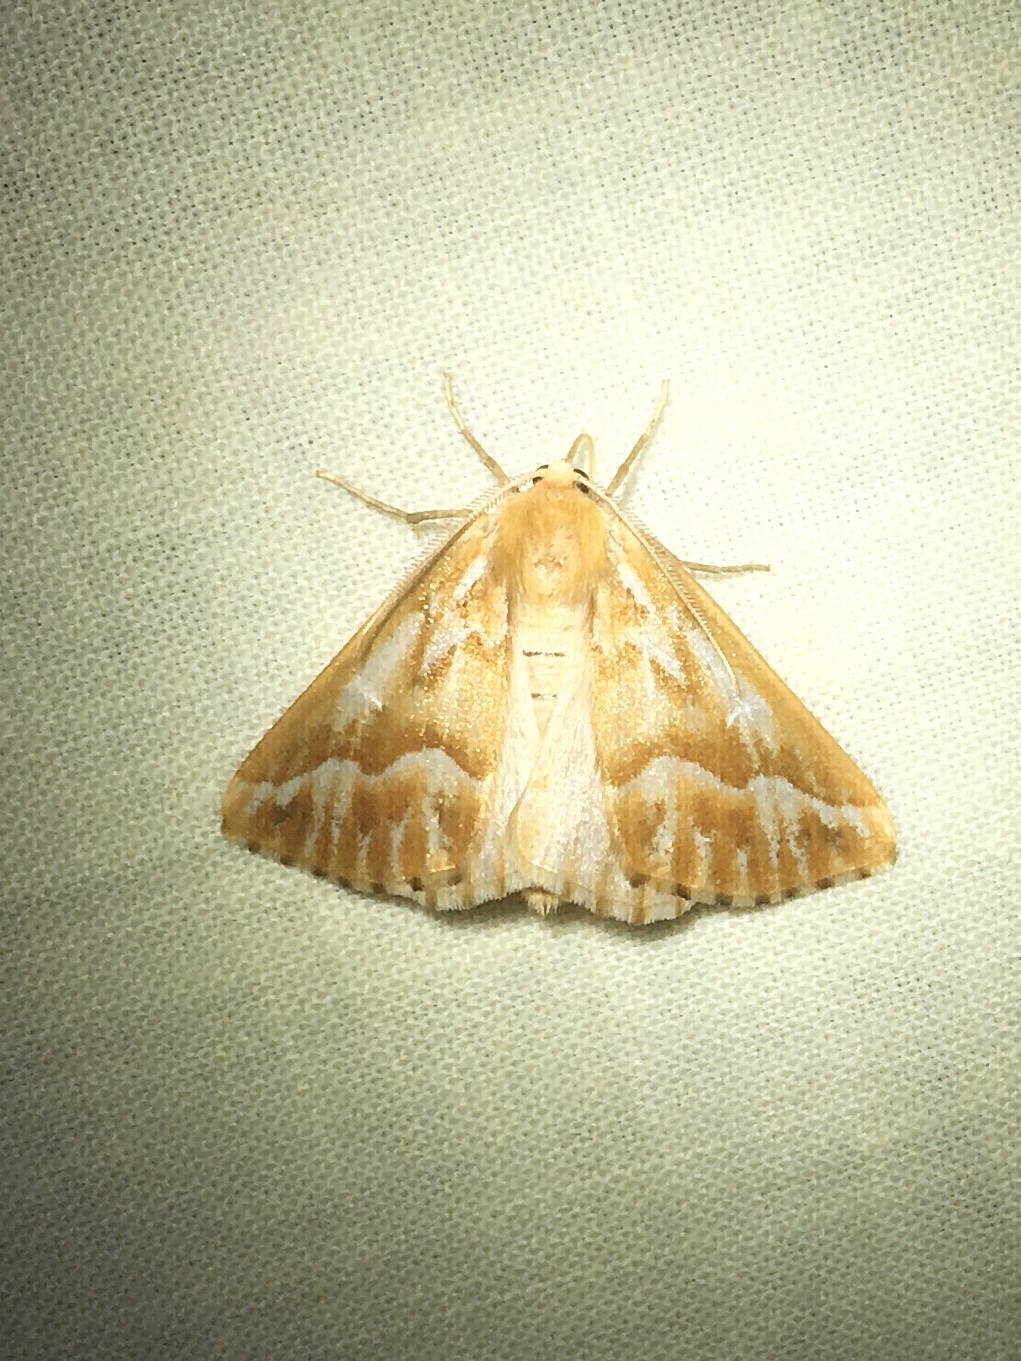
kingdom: Animalia
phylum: Arthropoda
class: Insecta
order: Lepidoptera
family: Geometridae
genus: Caripeta
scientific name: Caripeta piniata
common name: Northern pine looper moth
